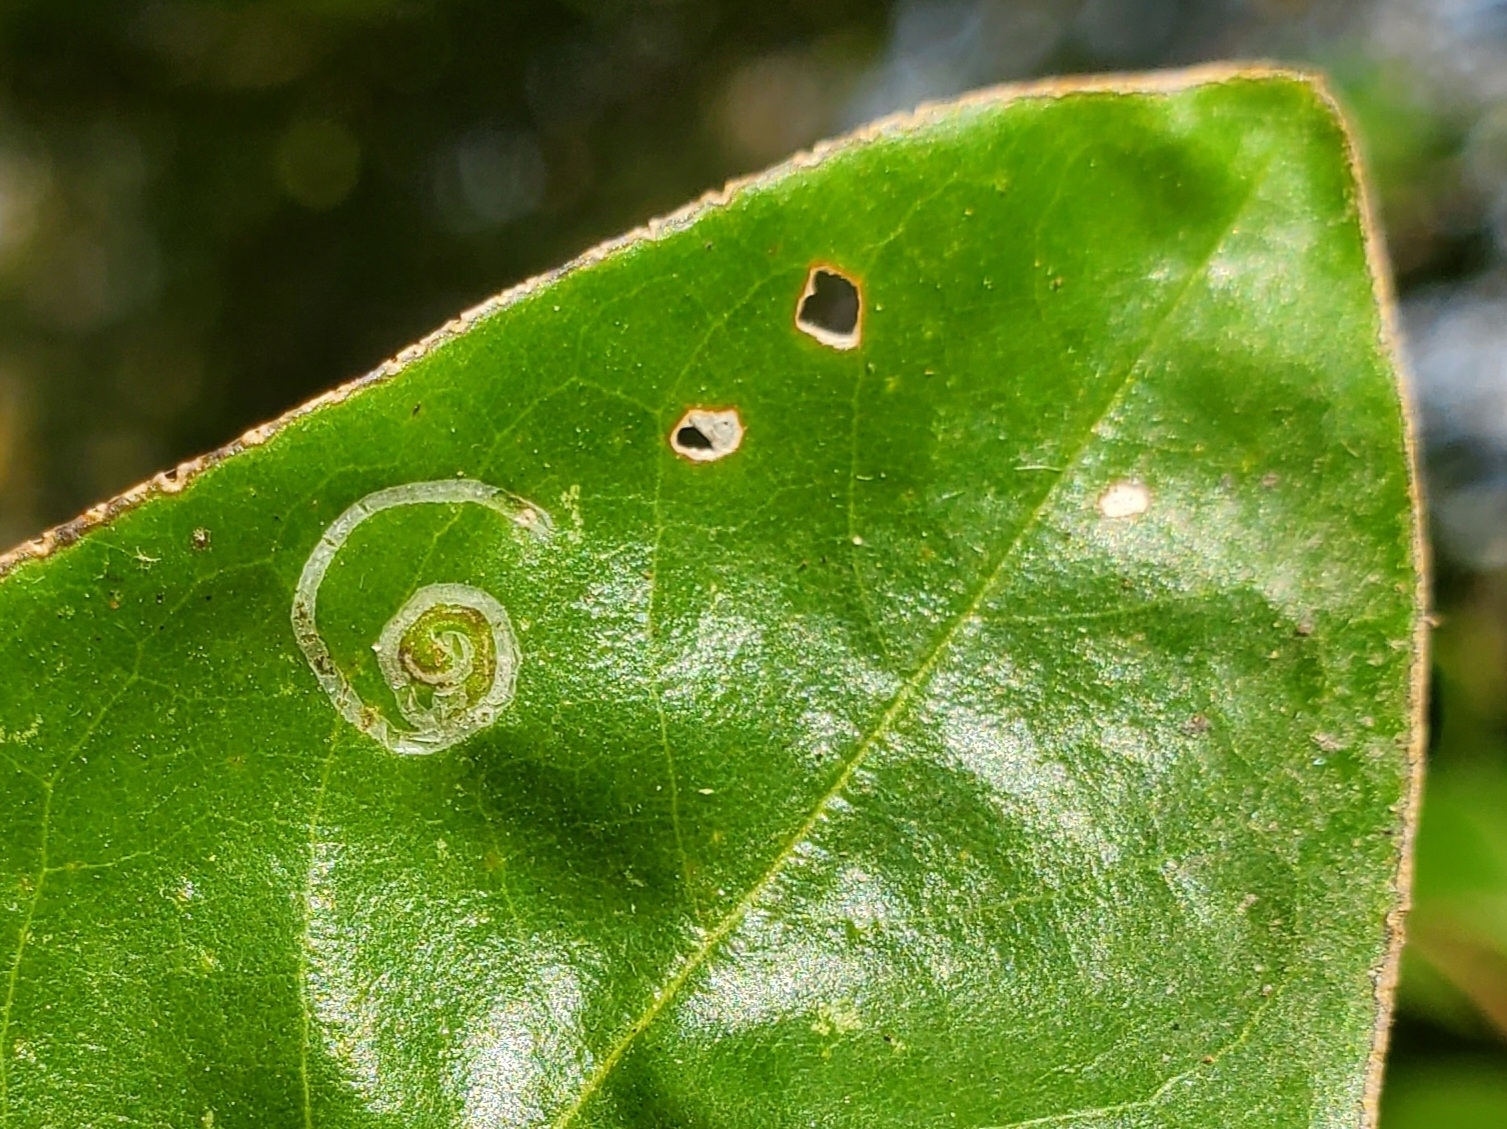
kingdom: Animalia
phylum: Arthropoda
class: Insecta
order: Lepidoptera
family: Gracillariidae
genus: Phyllocnistis
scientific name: Phyllocnistis liriodendronella
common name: Tulip tree leaf miner
